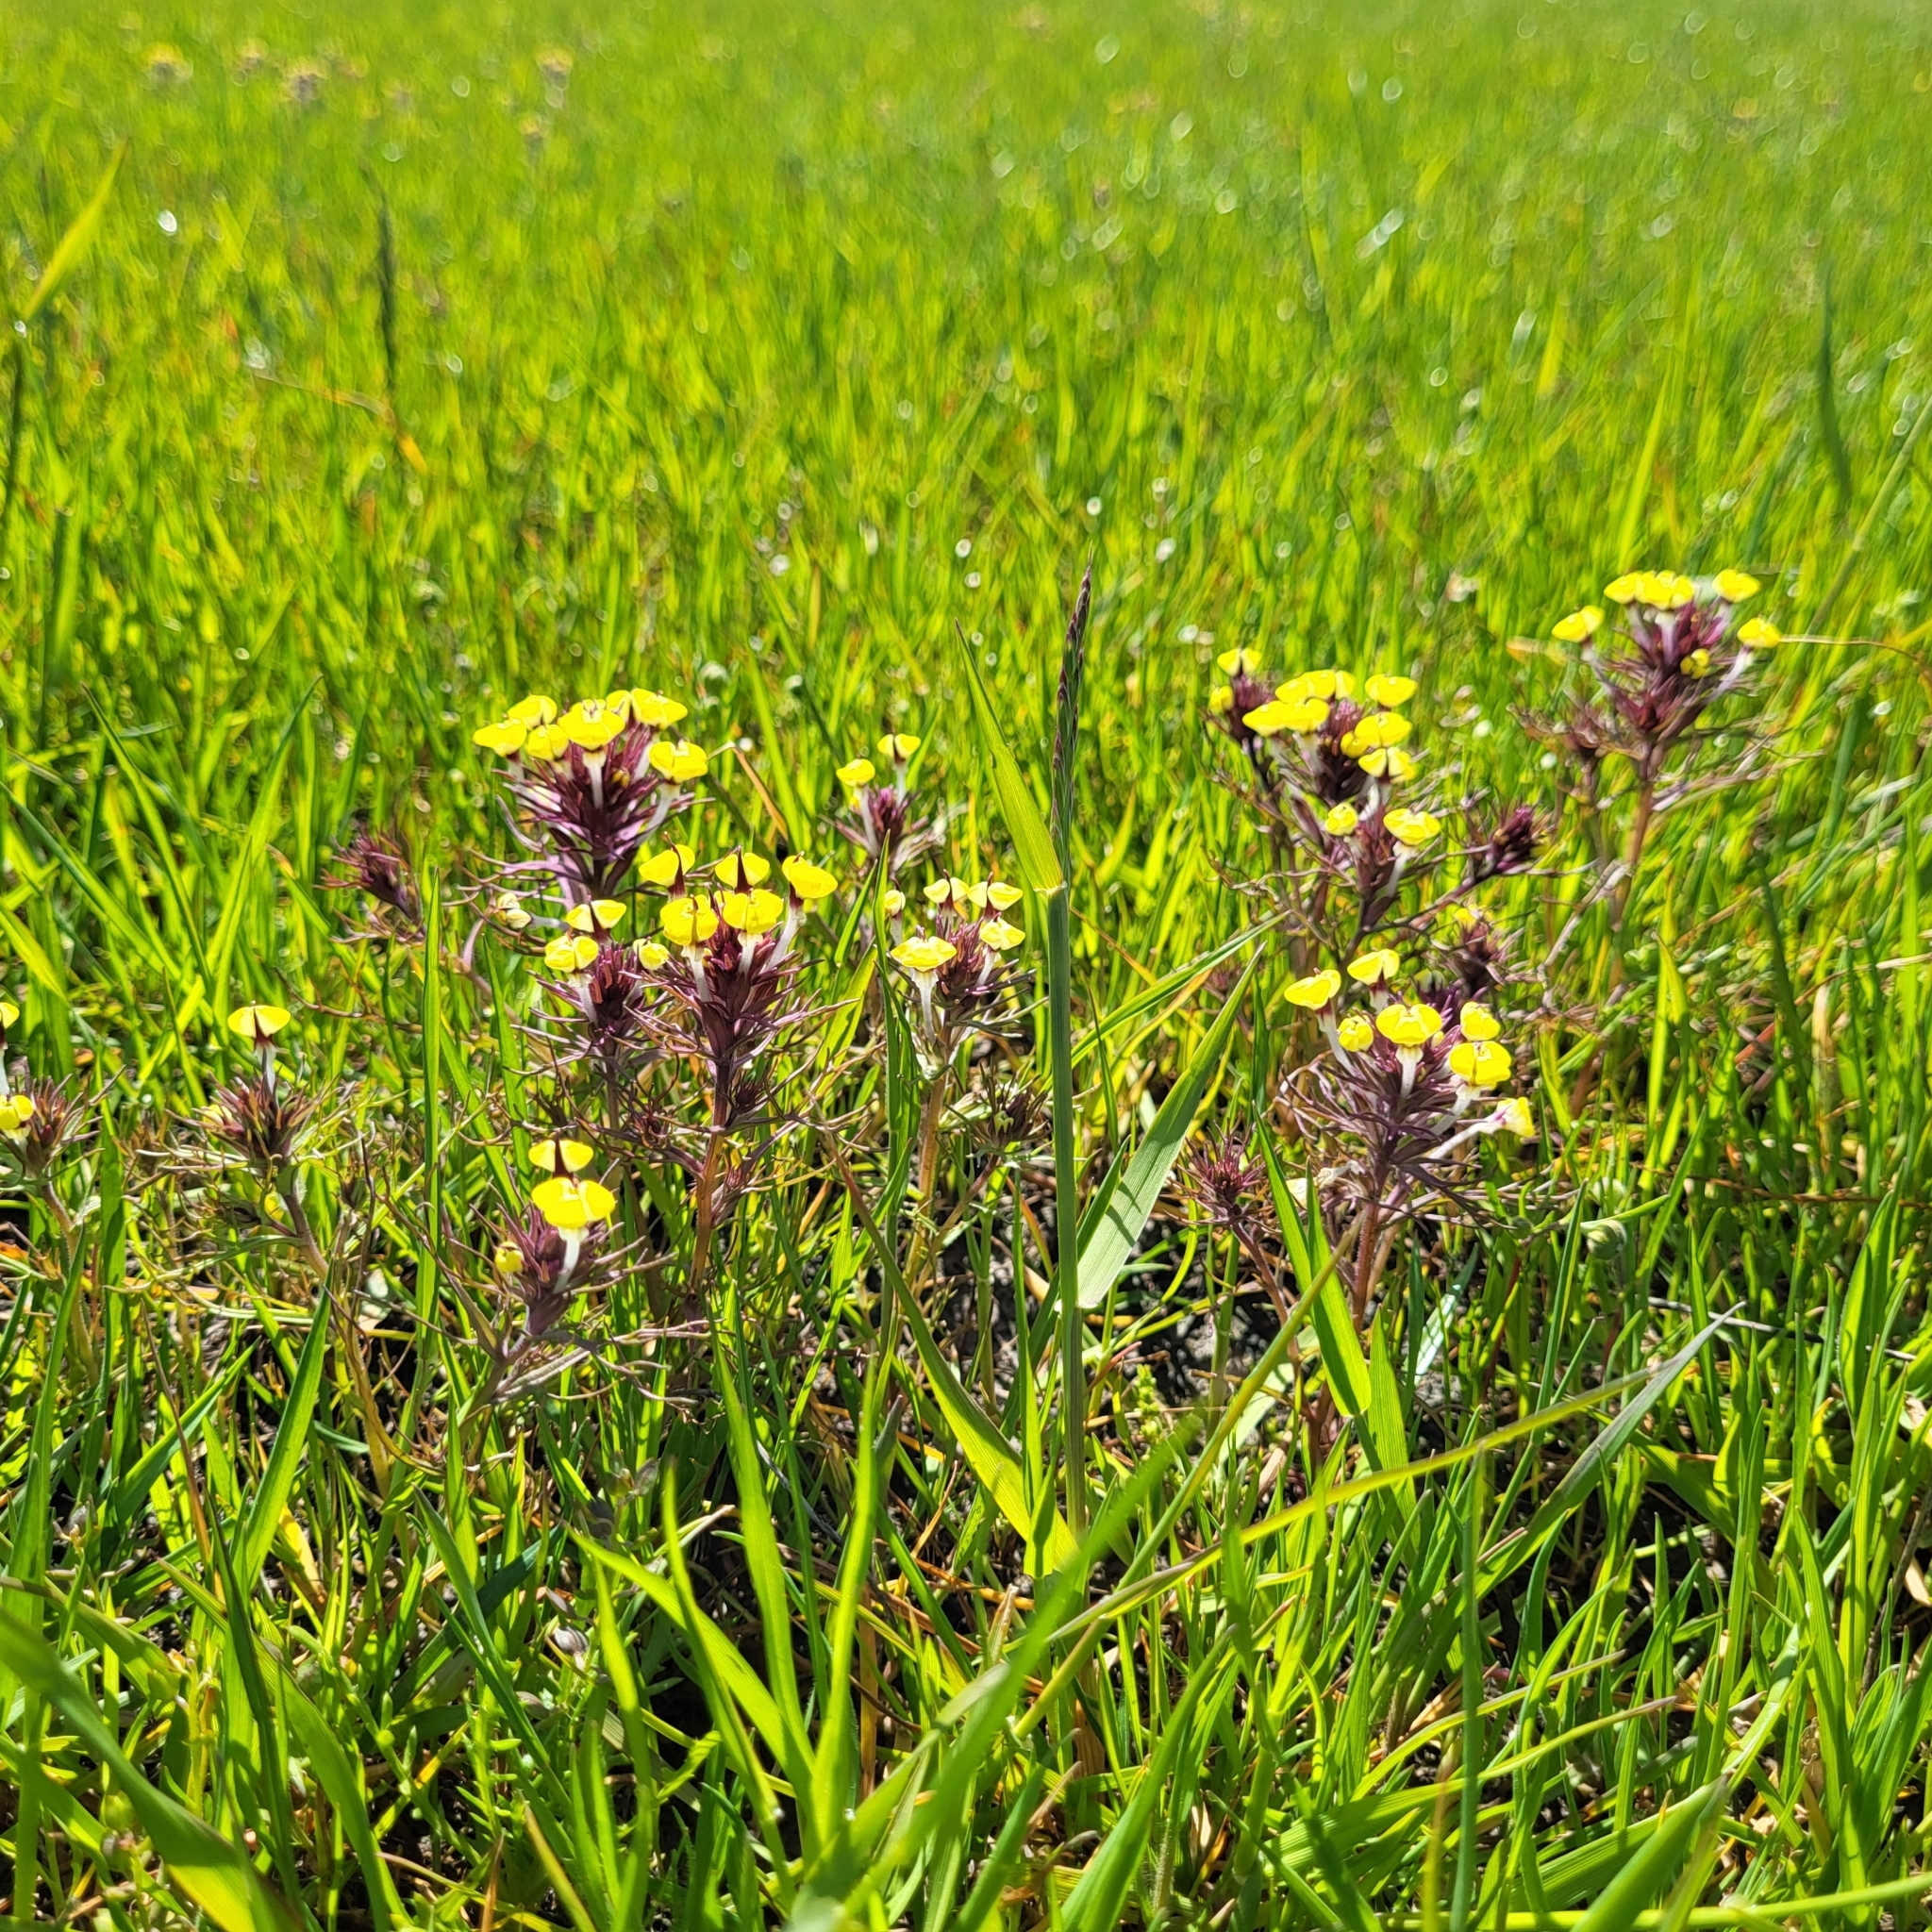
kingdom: Plantae
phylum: Tracheophyta
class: Magnoliopsida
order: Lamiales
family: Orobanchaceae
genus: Triphysaria
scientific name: Triphysaria eriantha
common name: Johnny-tuck
